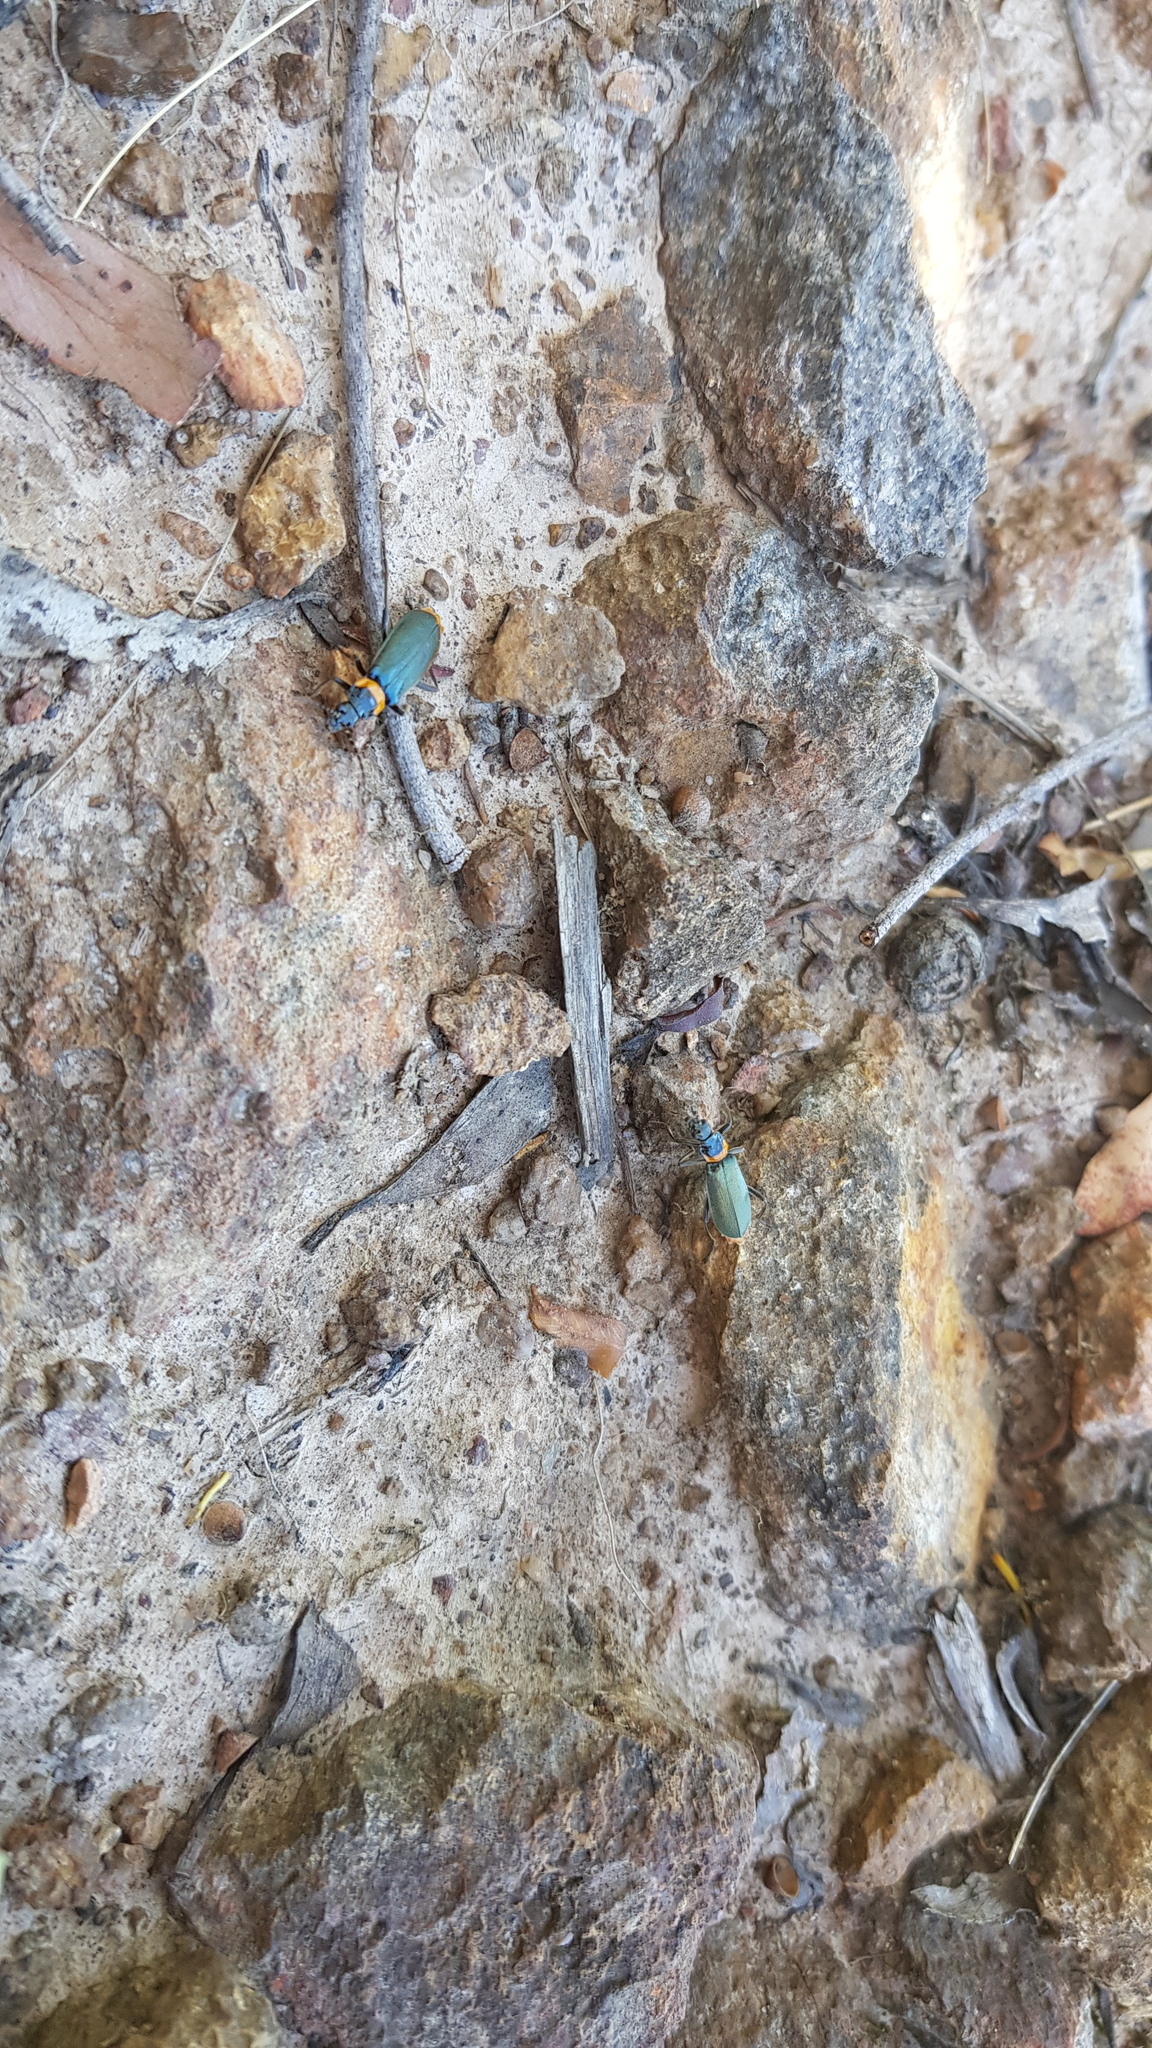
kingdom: Animalia
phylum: Arthropoda
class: Insecta
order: Coleoptera
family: Cantharidae
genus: Chauliognathus
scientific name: Chauliognathus
